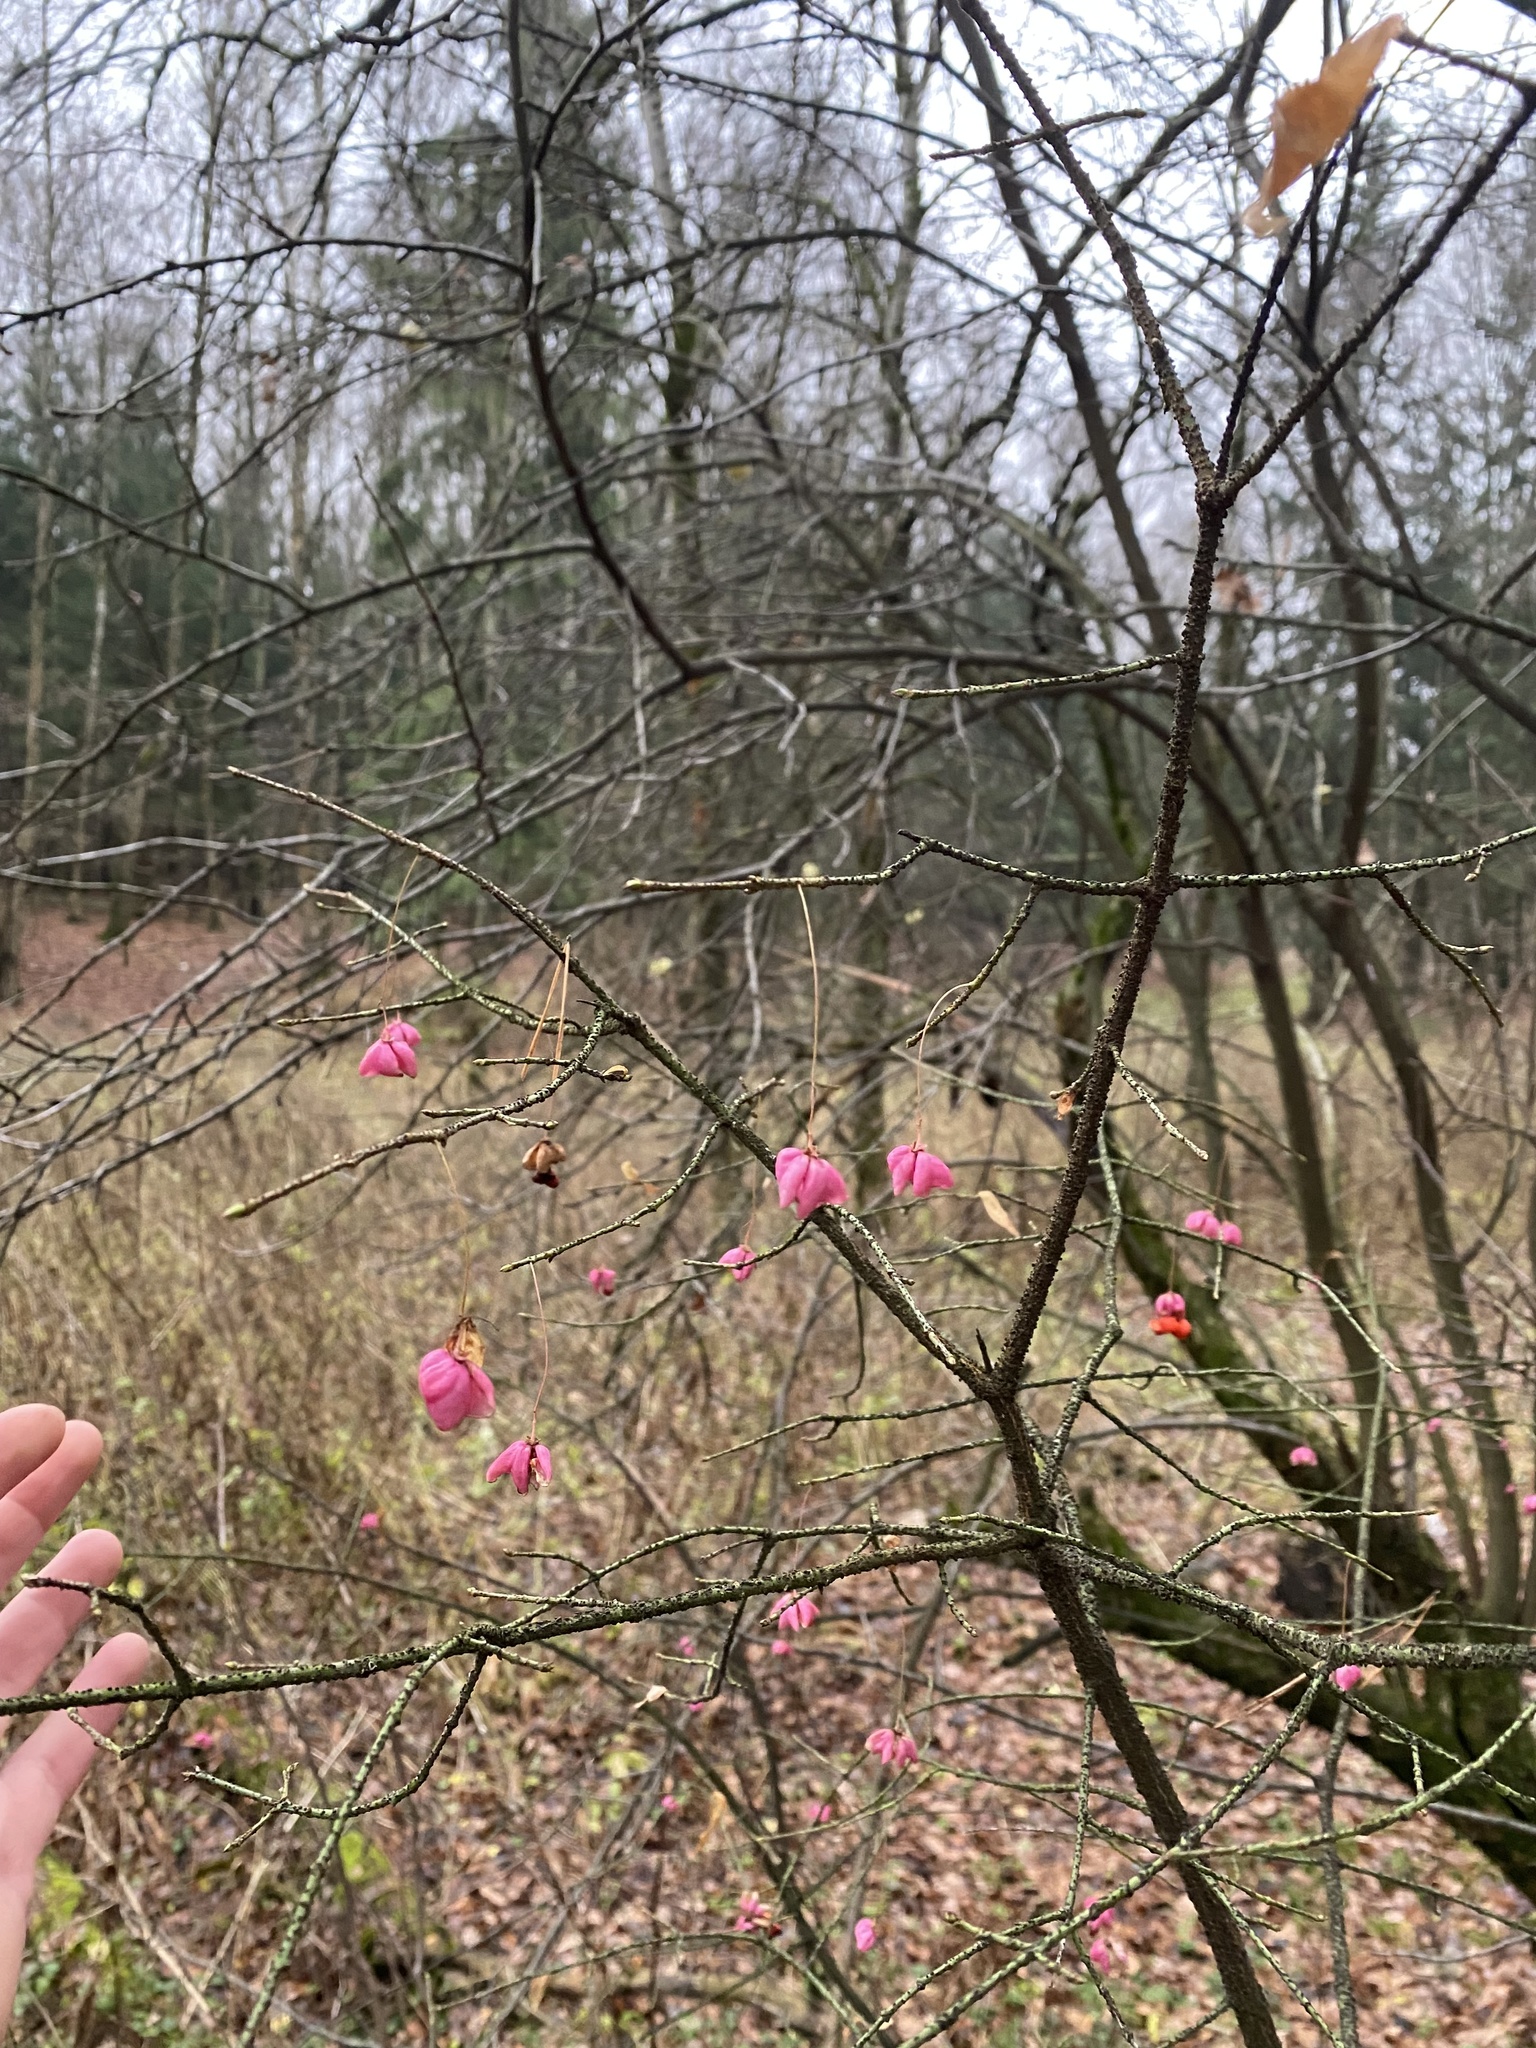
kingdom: Plantae
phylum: Tracheophyta
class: Magnoliopsida
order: Celastrales
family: Celastraceae
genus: Euonymus
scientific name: Euonymus verrucosus
